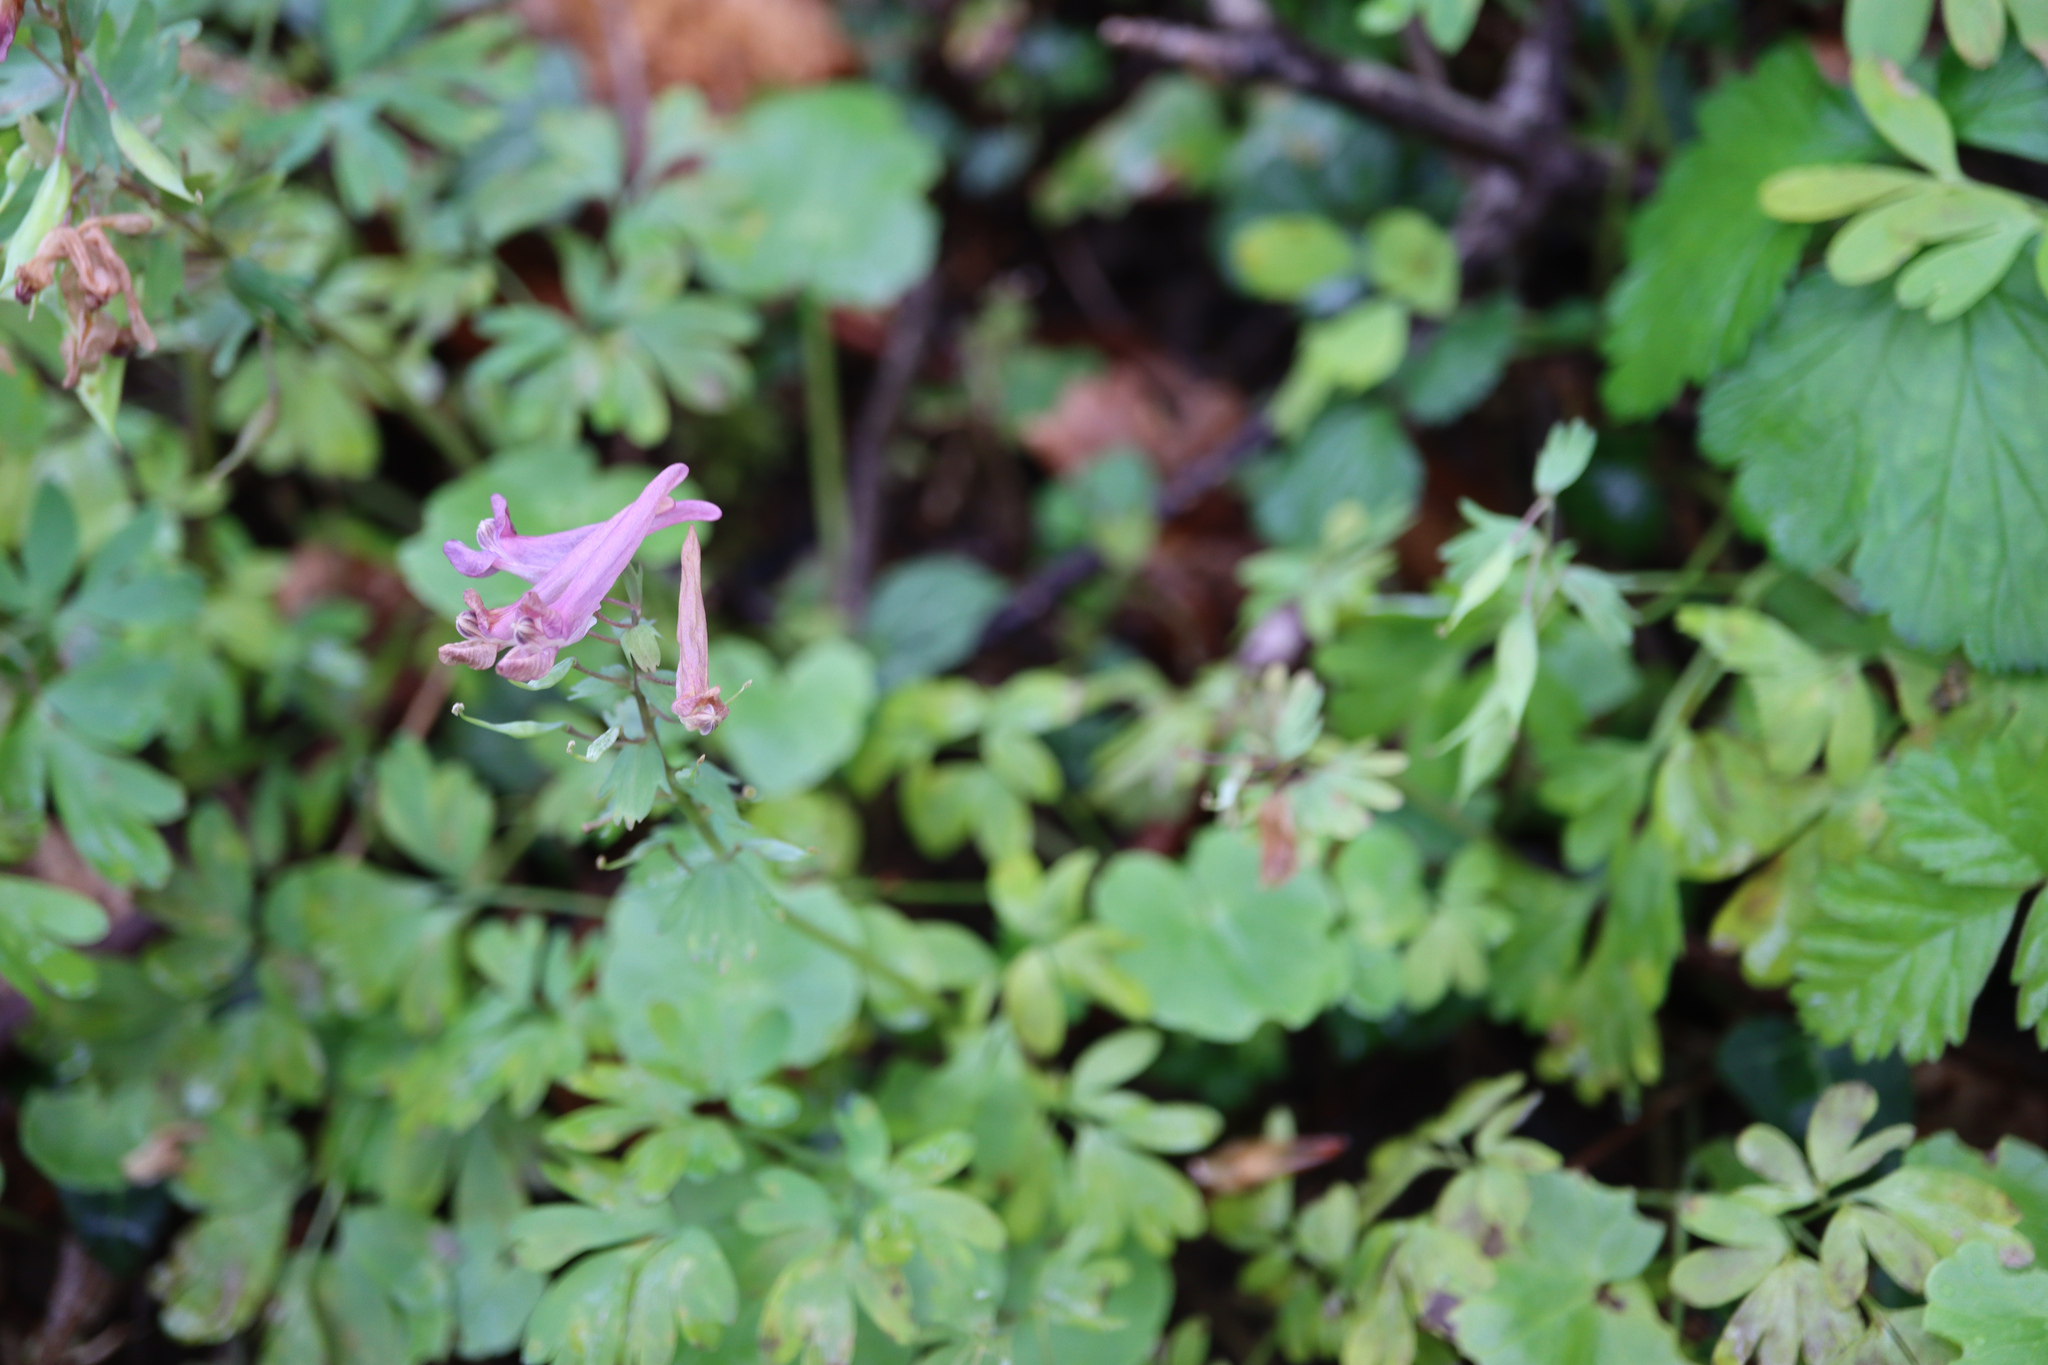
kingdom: Plantae
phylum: Tracheophyta
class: Magnoliopsida
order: Ranunculales
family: Papaveraceae
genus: Corydalis
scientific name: Corydalis solida
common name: Bird-in-a-bush
